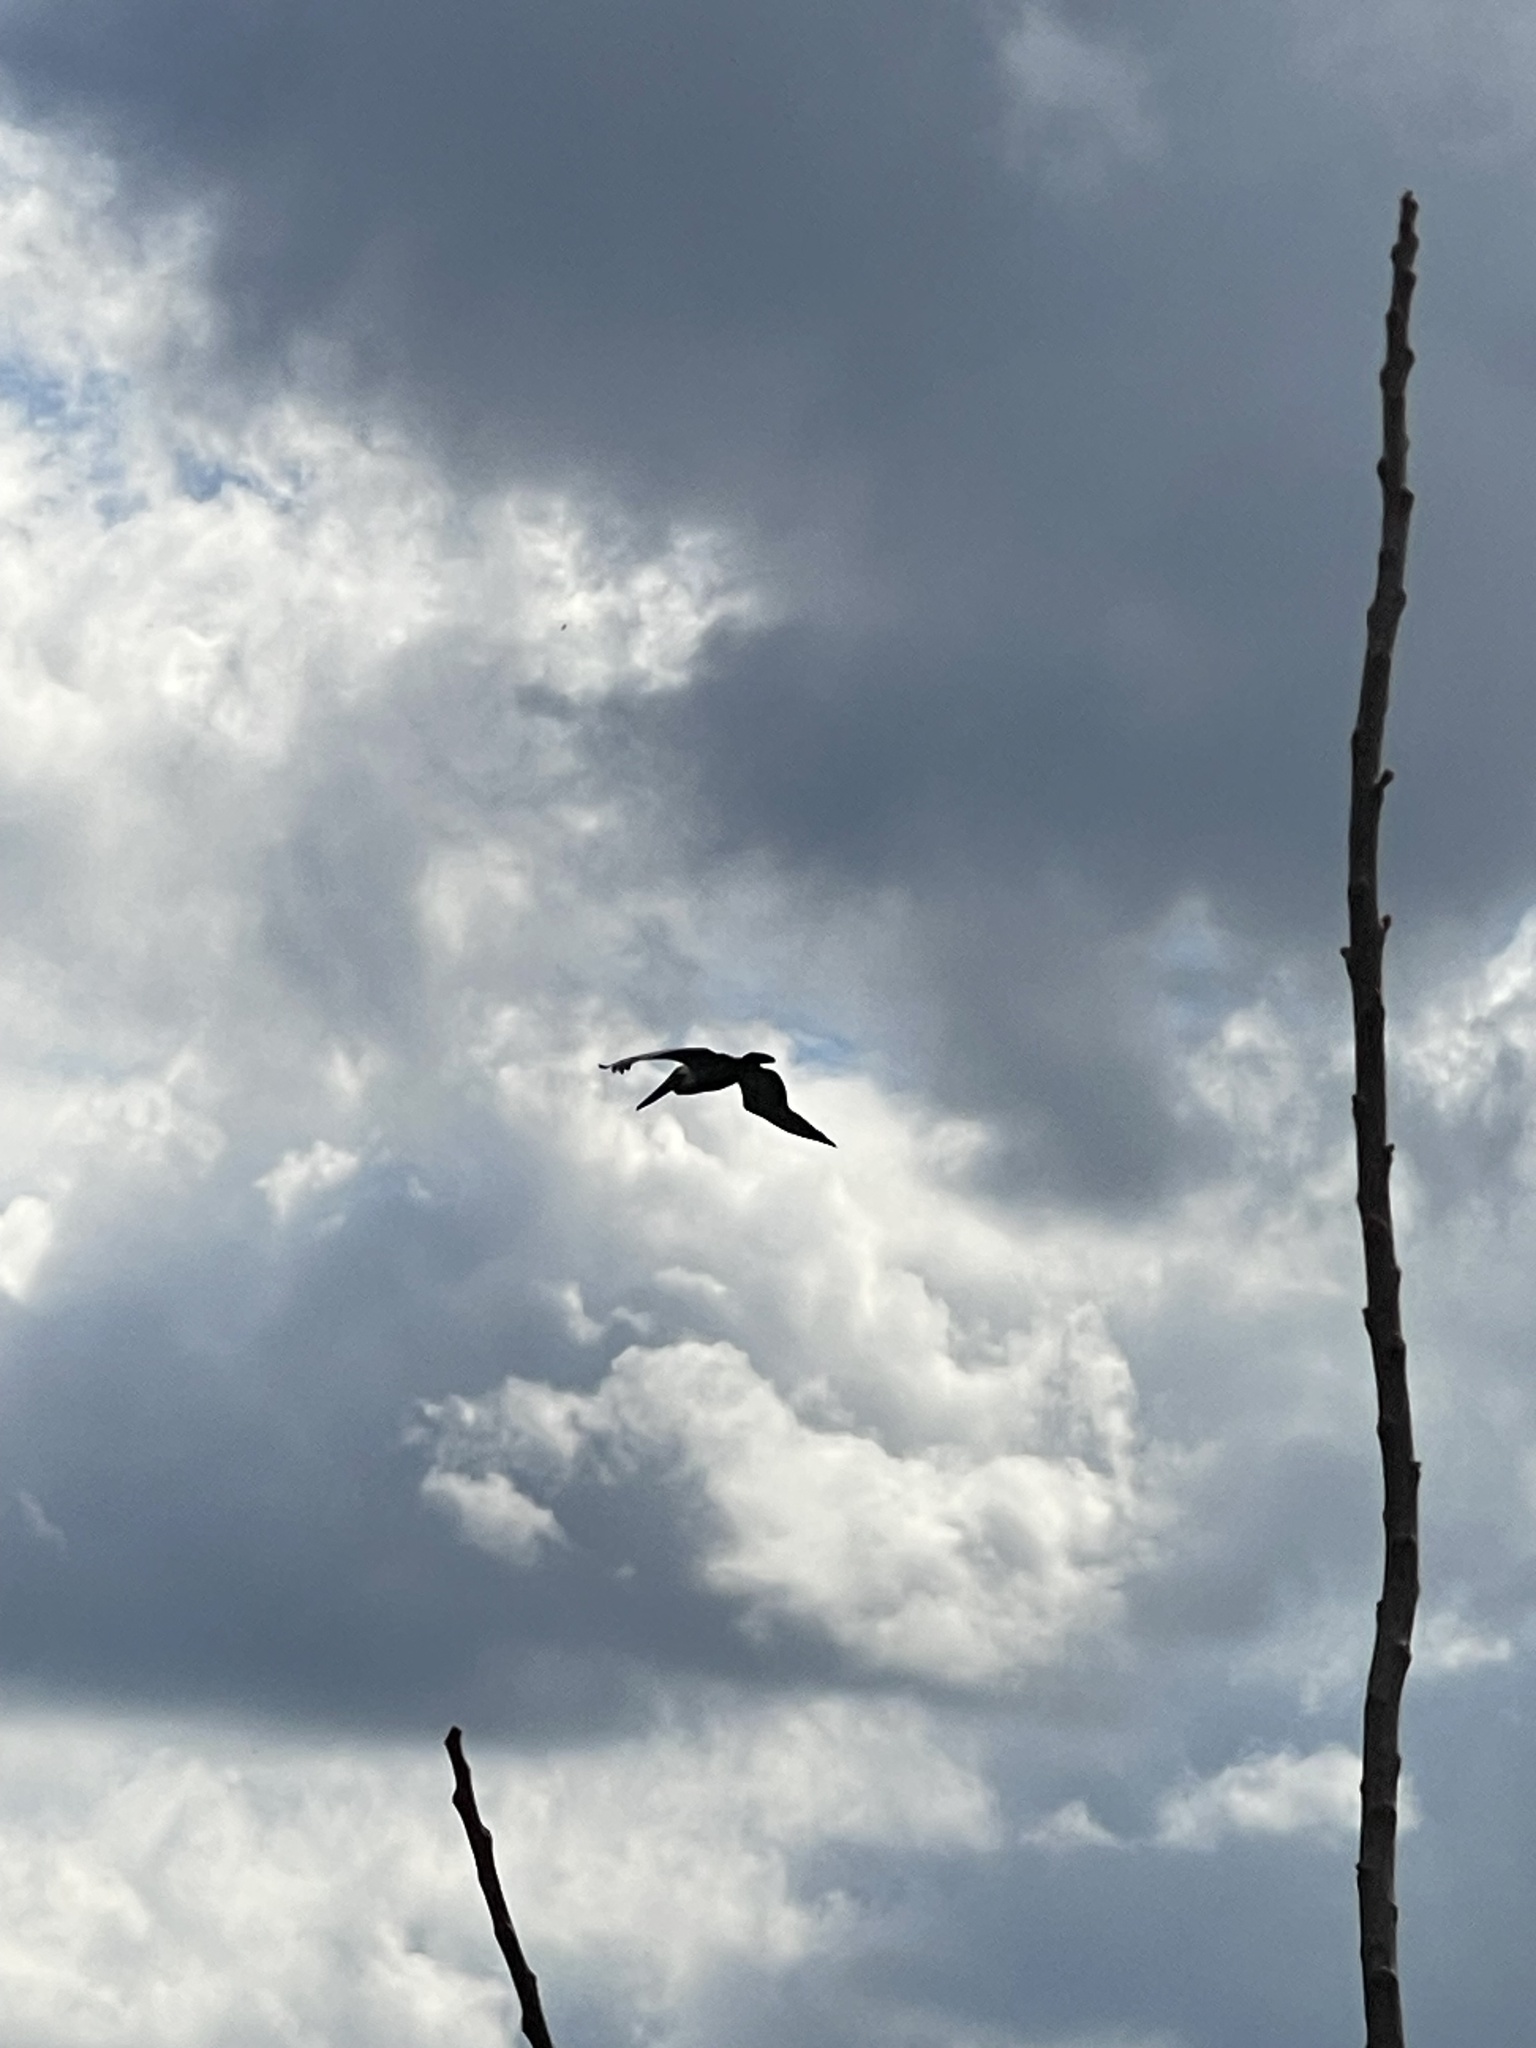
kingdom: Animalia
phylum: Chordata
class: Aves
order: Pelecaniformes
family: Pelecanidae
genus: Pelecanus
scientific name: Pelecanus occidentalis
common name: Brown pelican
